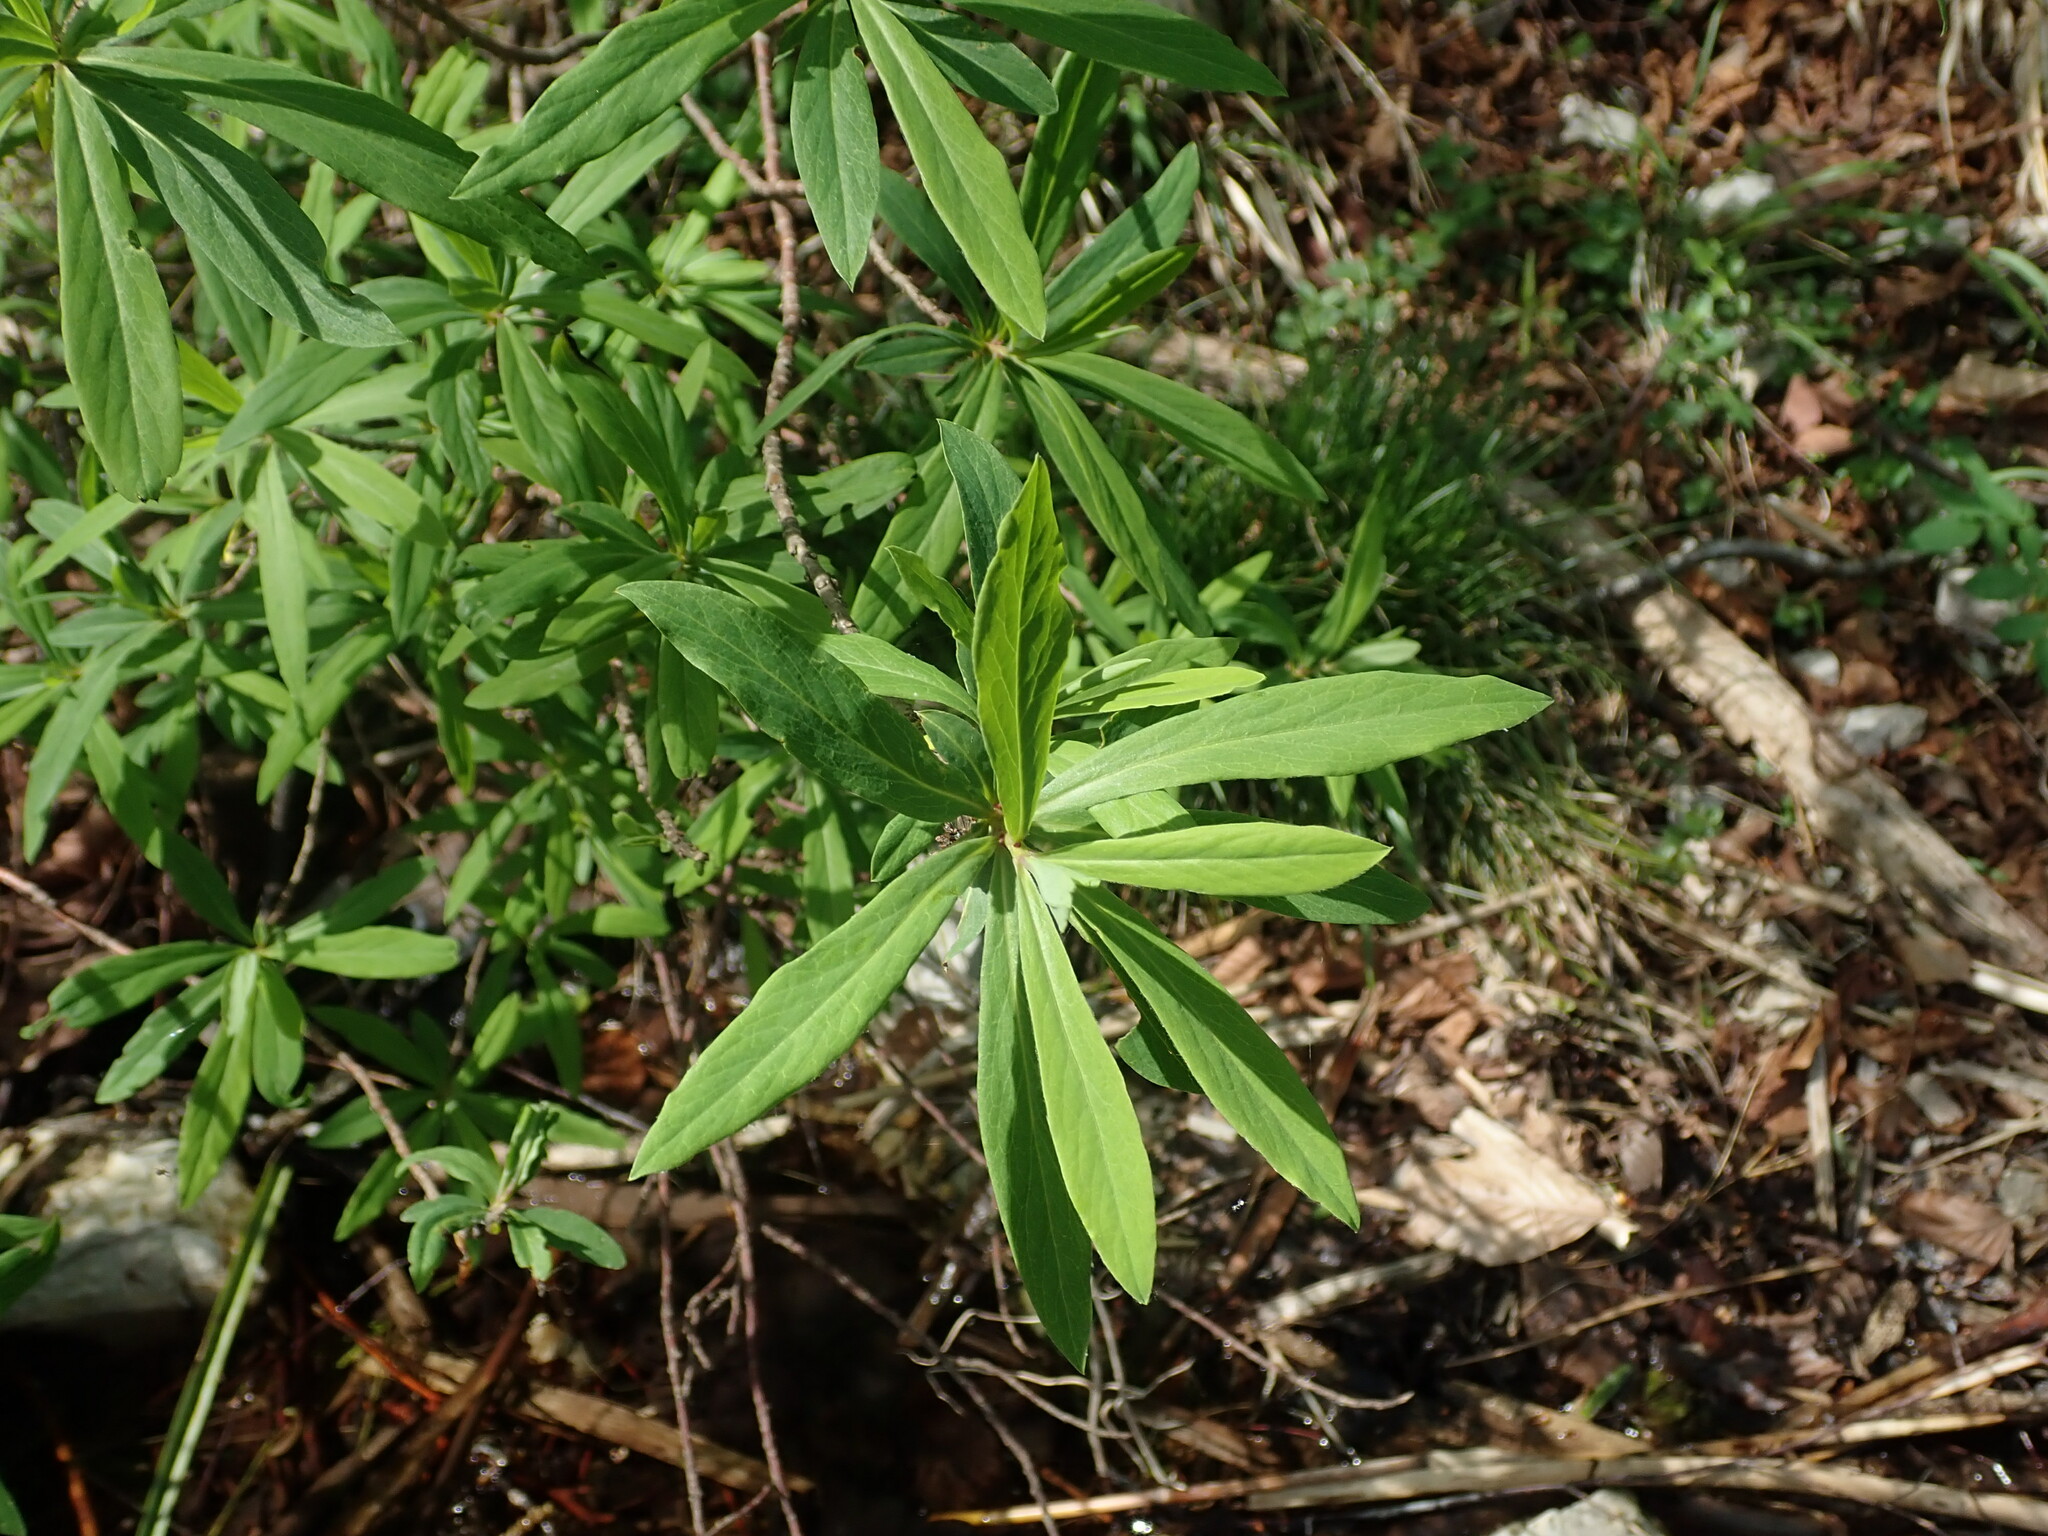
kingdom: Plantae
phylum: Tracheophyta
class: Magnoliopsida
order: Malvales
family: Thymelaeaceae
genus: Daphne
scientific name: Daphne mezereum
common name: Mezereon
